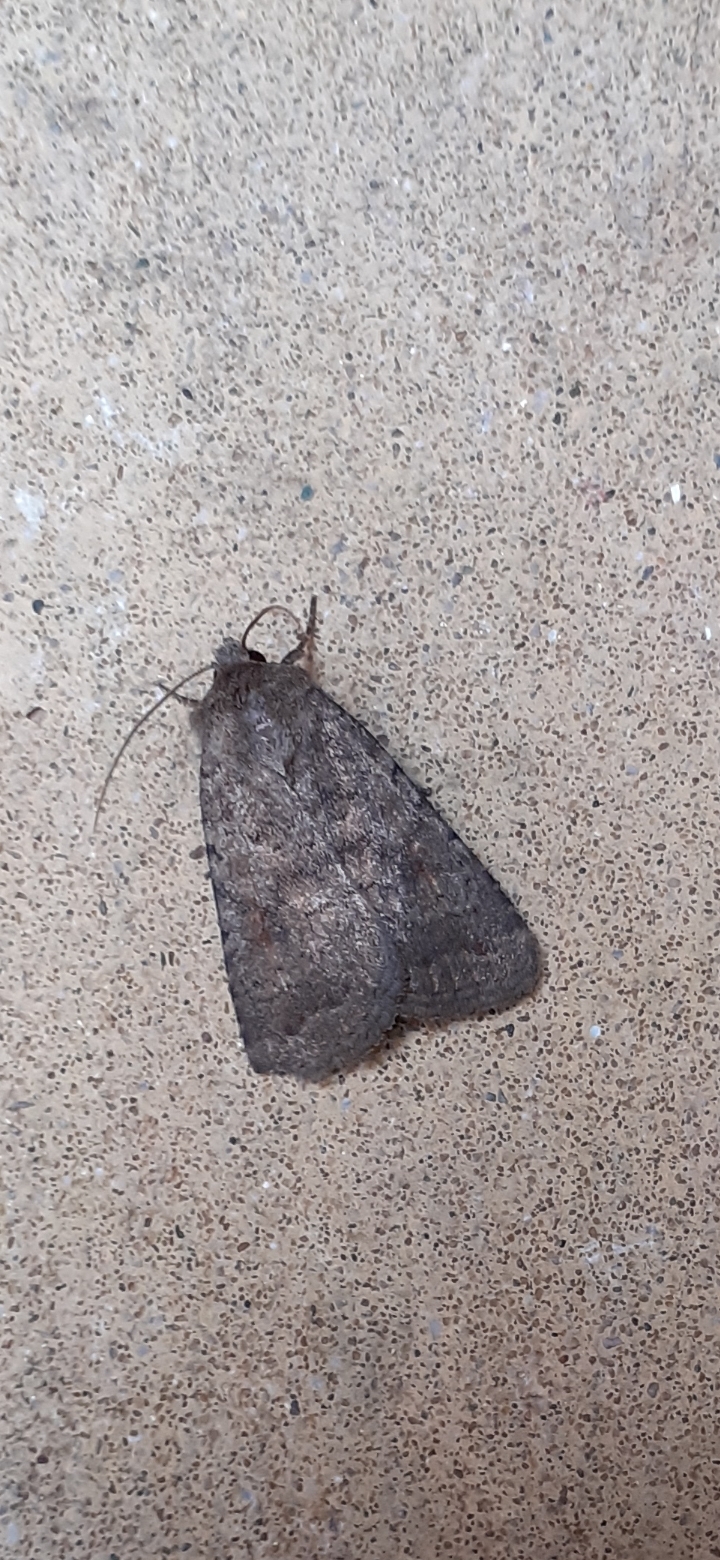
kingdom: Animalia
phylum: Arthropoda
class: Insecta
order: Lepidoptera
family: Noctuidae
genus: Caradrina
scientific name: Caradrina morpheus
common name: Mottled rustic
